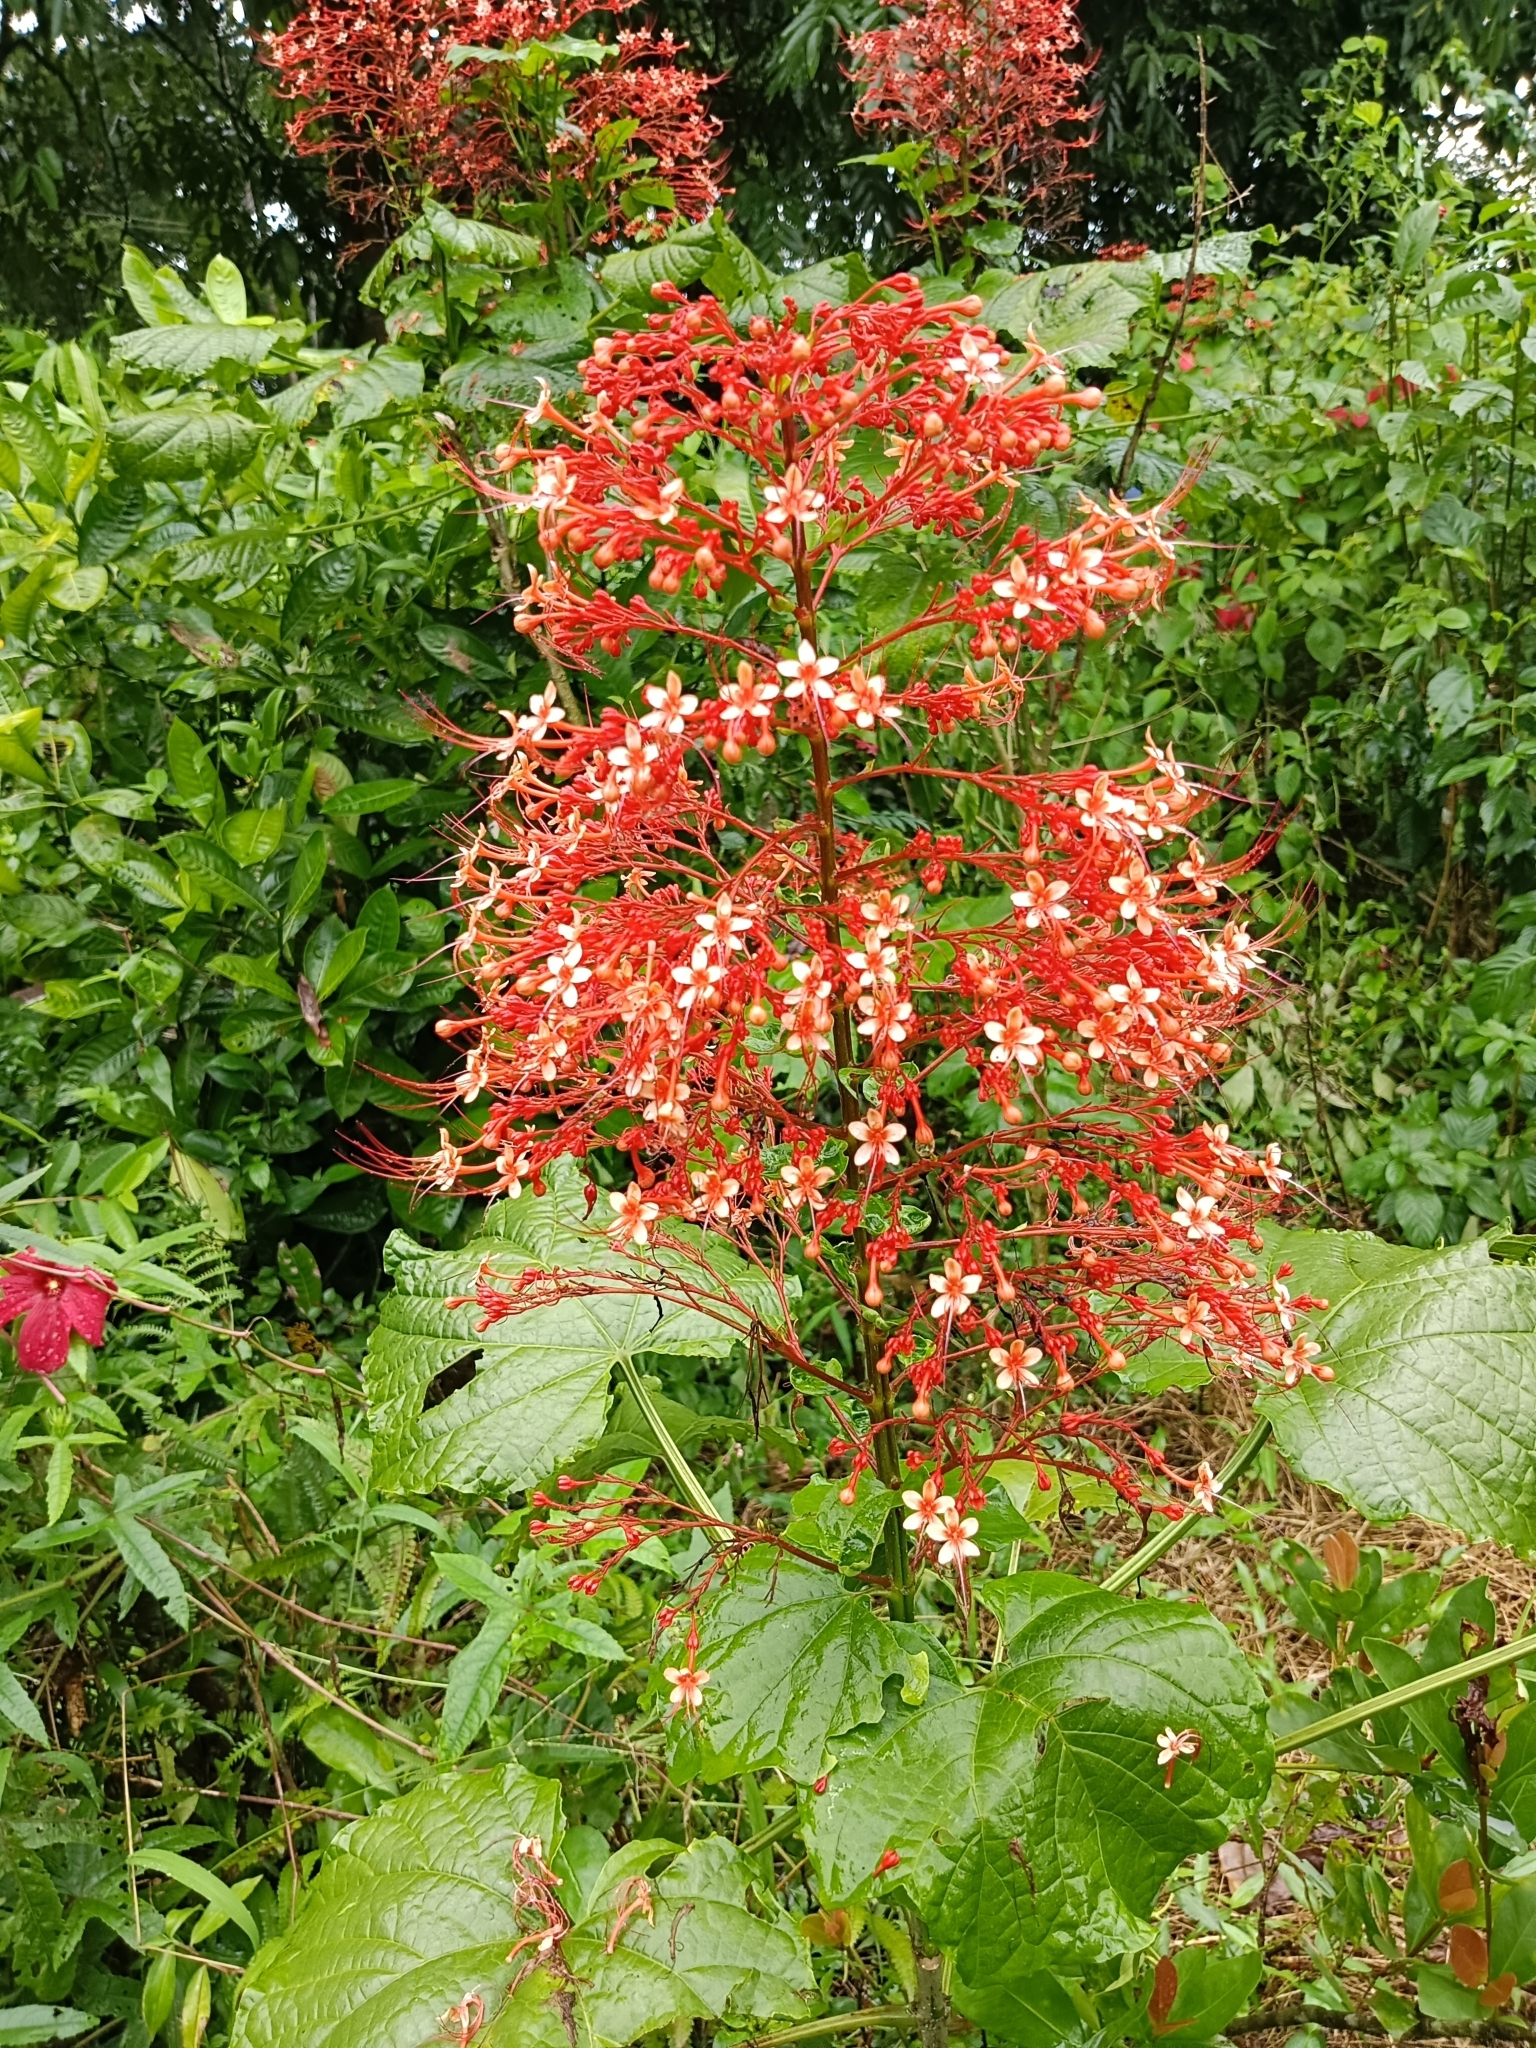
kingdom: Plantae
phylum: Tracheophyta
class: Magnoliopsida
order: Lamiales
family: Lamiaceae
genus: Clerodendrum
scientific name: Clerodendrum paniculatum
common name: Pagoda-flower
